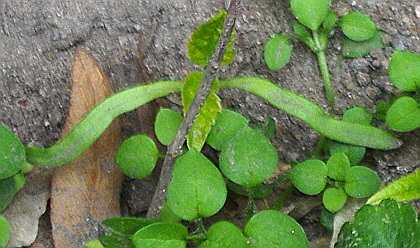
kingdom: Plantae
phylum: Tracheophyta
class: Magnoliopsida
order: Sapindales
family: Sapindaceae
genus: Acer
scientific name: Acer negundo
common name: Ashleaf maple
